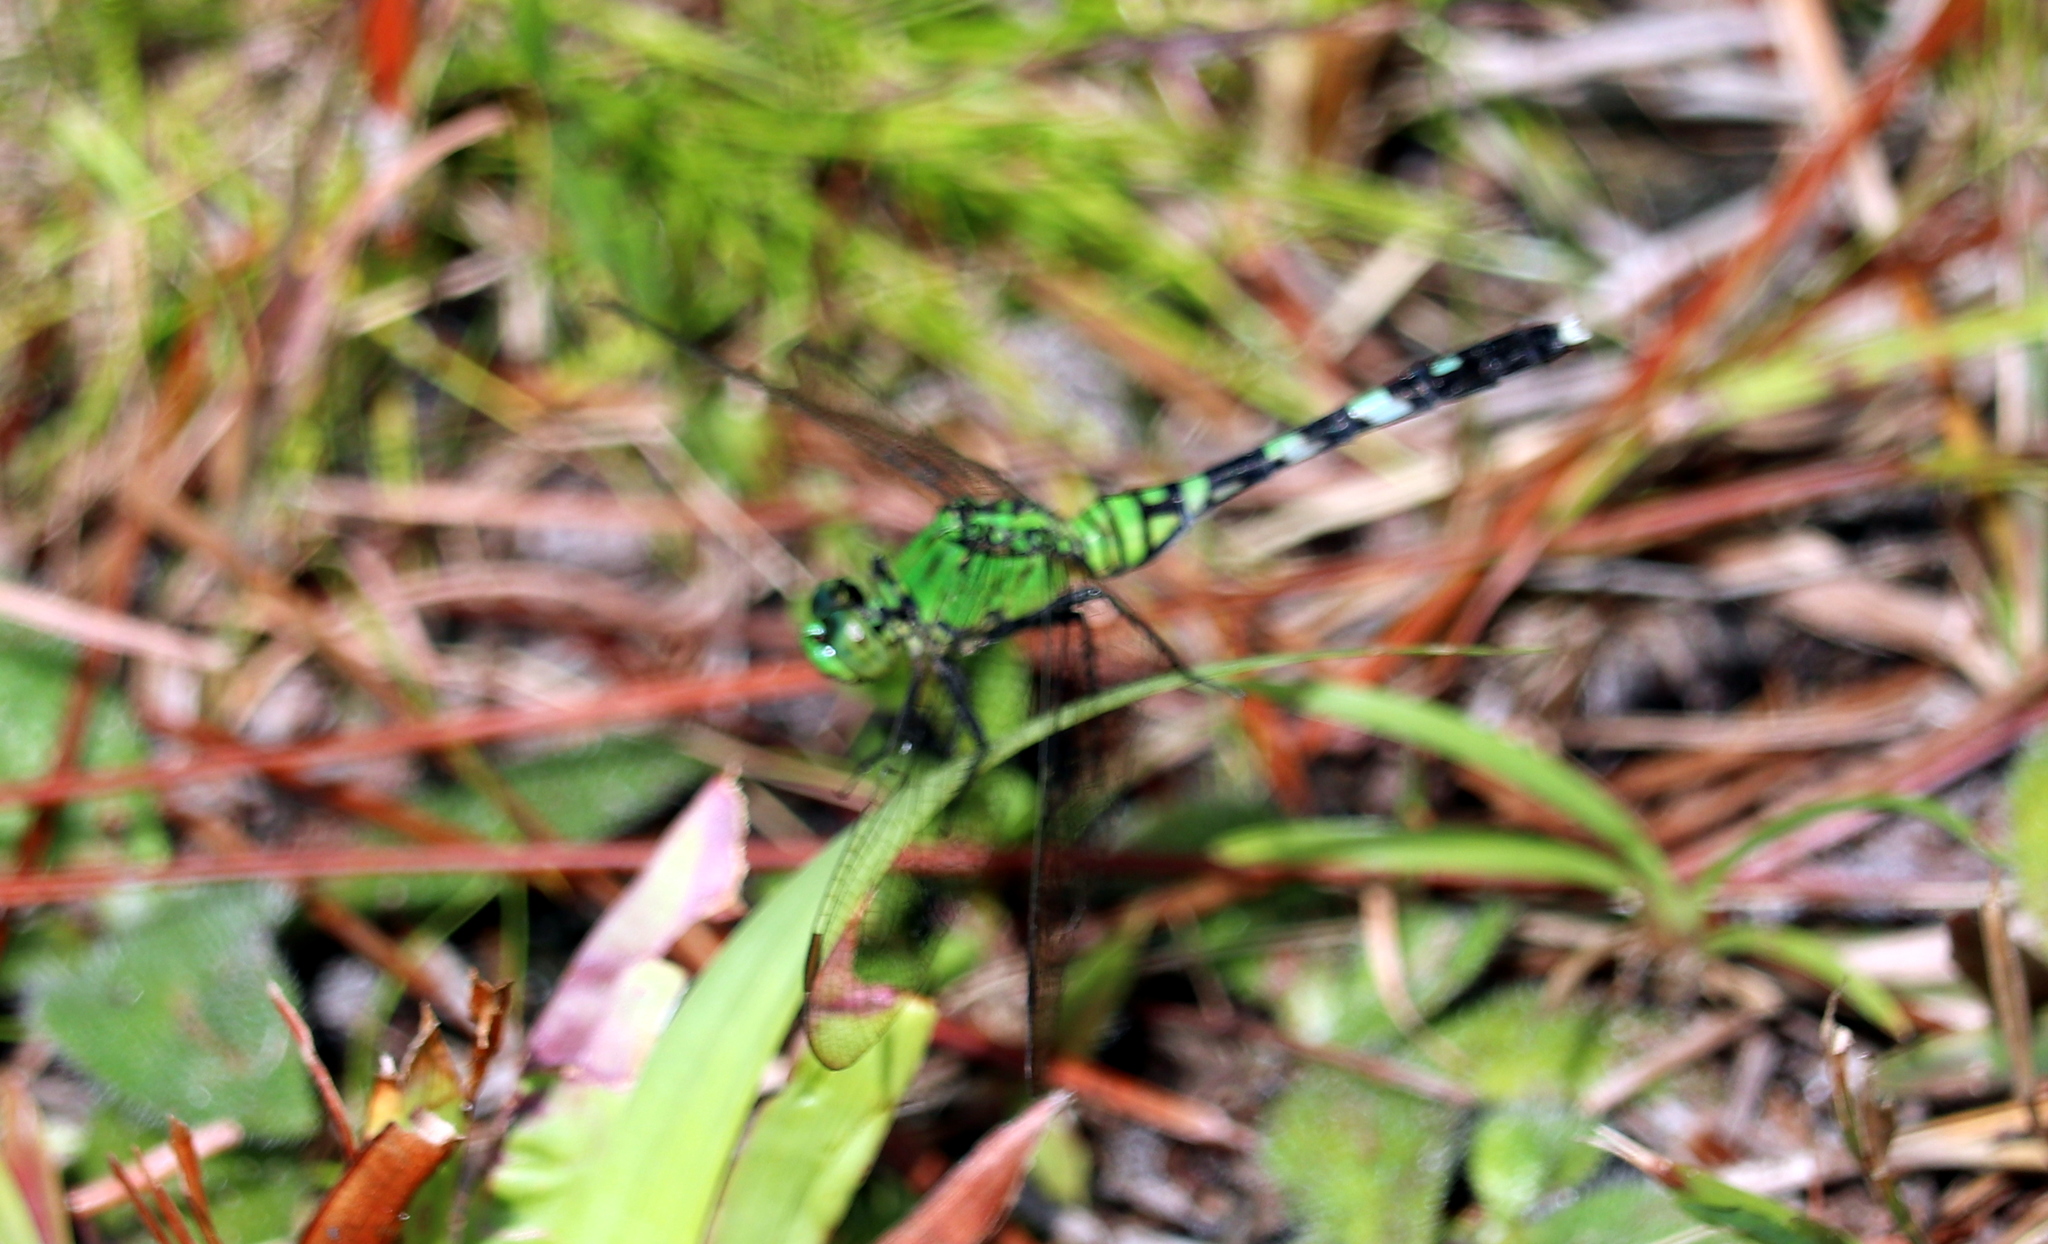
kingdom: Animalia
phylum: Arthropoda
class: Insecta
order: Odonata
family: Libellulidae
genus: Erythemis
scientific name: Erythemis simplicicollis
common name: Eastern pondhawk
